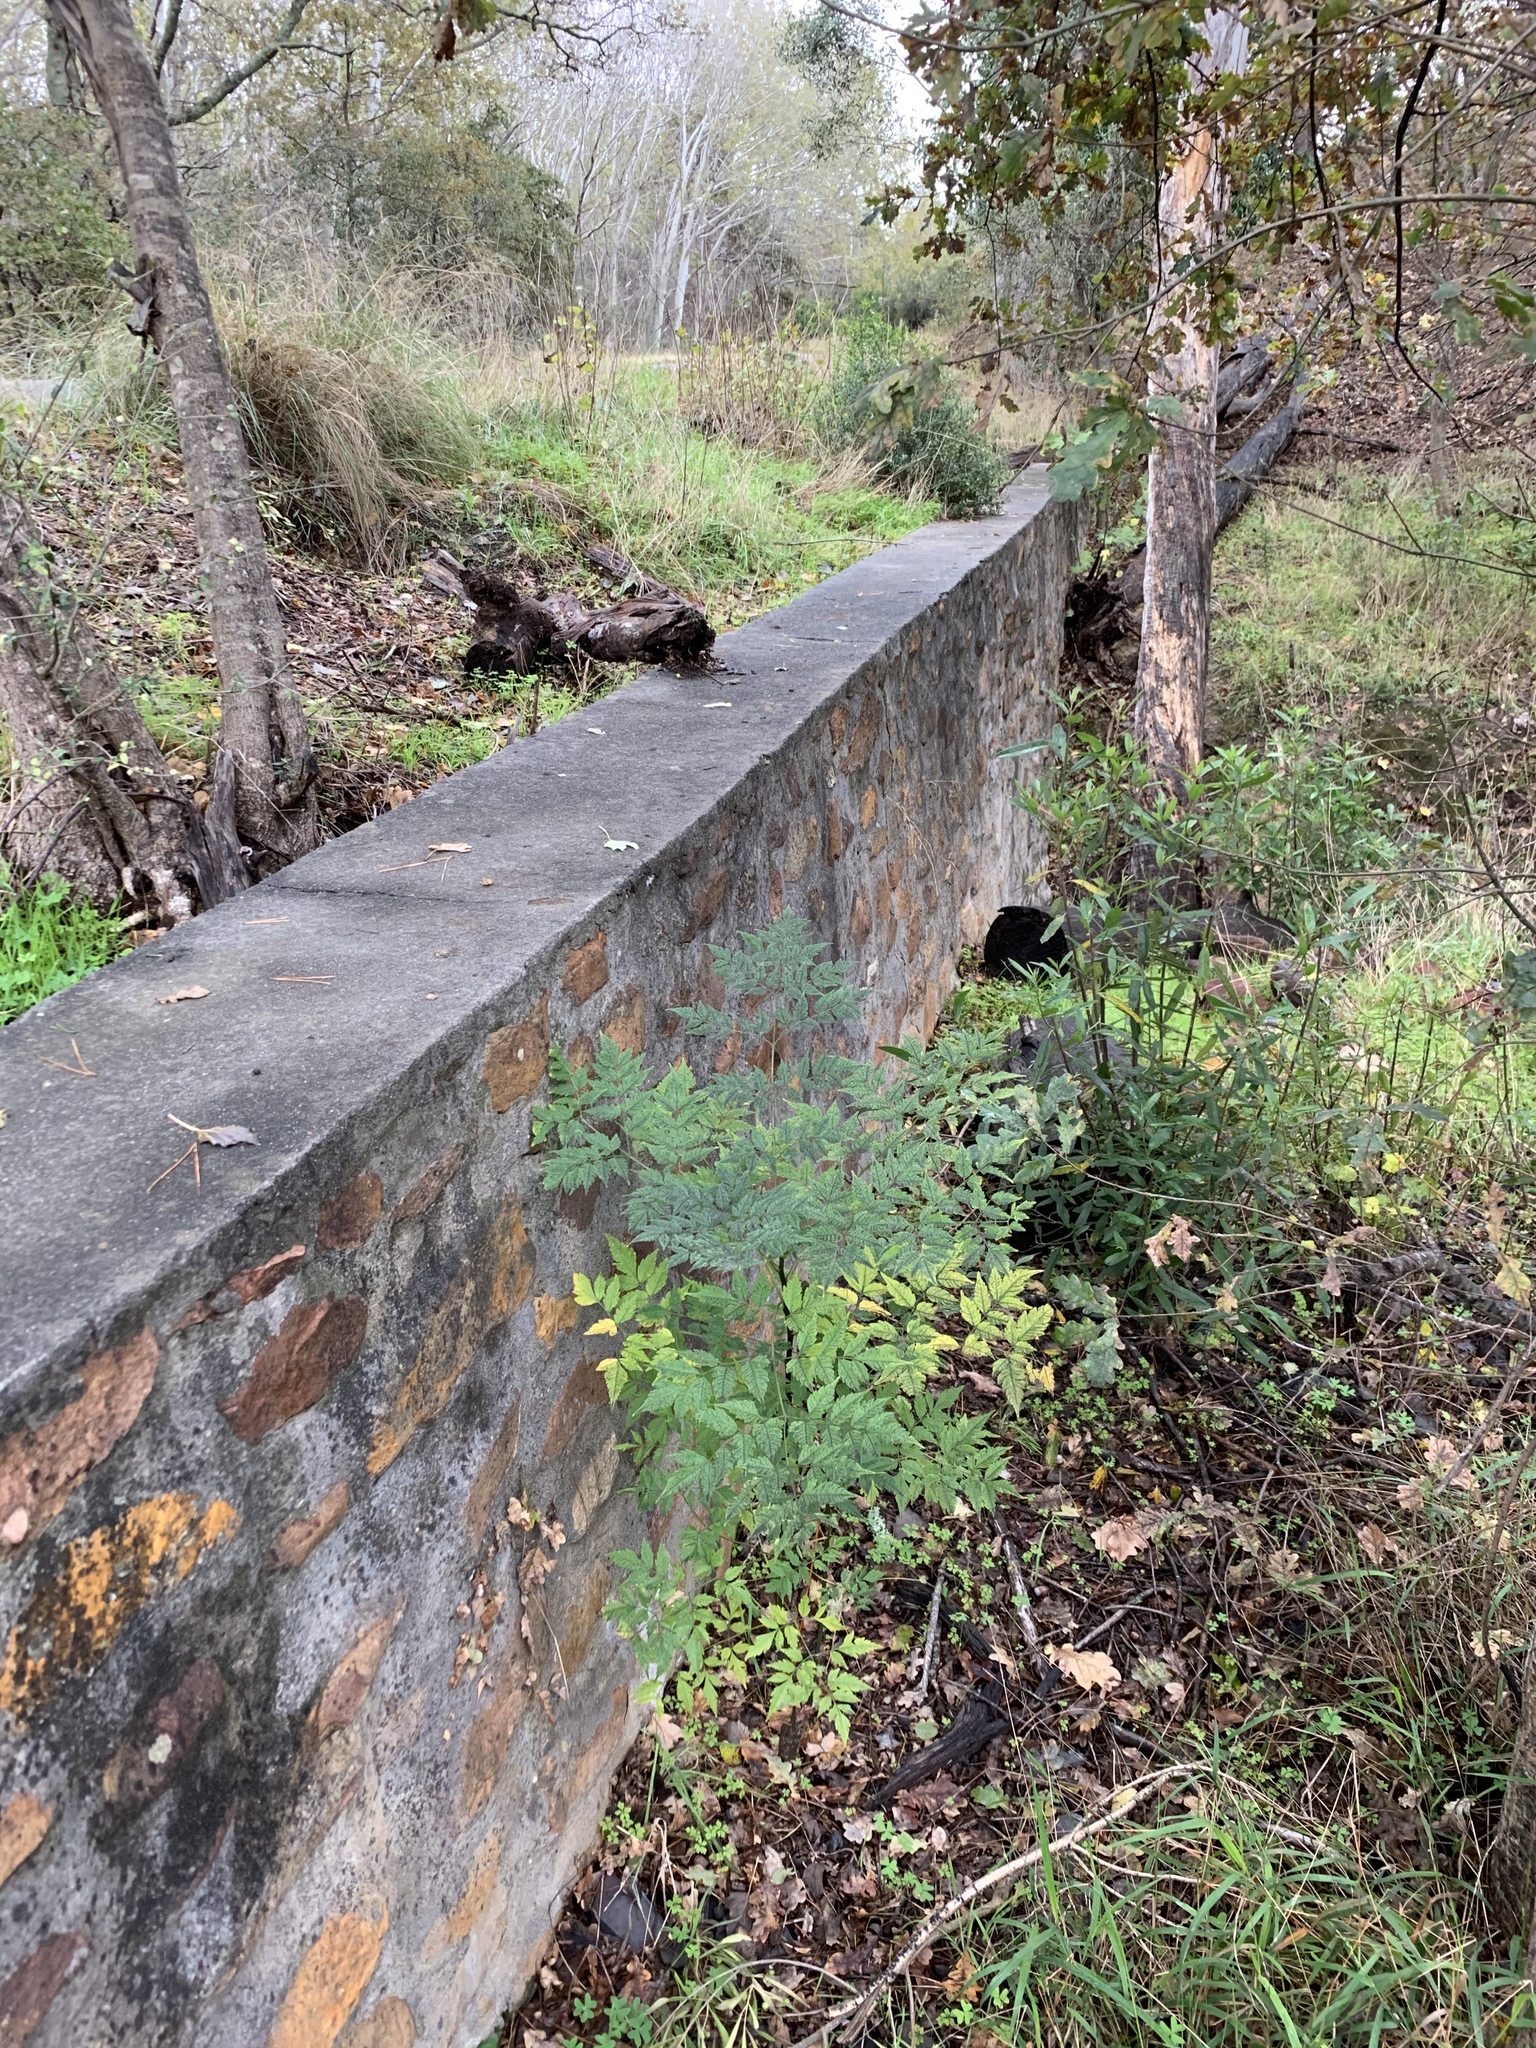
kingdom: Plantae
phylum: Tracheophyta
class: Magnoliopsida
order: Sapindales
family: Meliaceae
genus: Melia
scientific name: Melia azedarach
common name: Chinaberrytree
